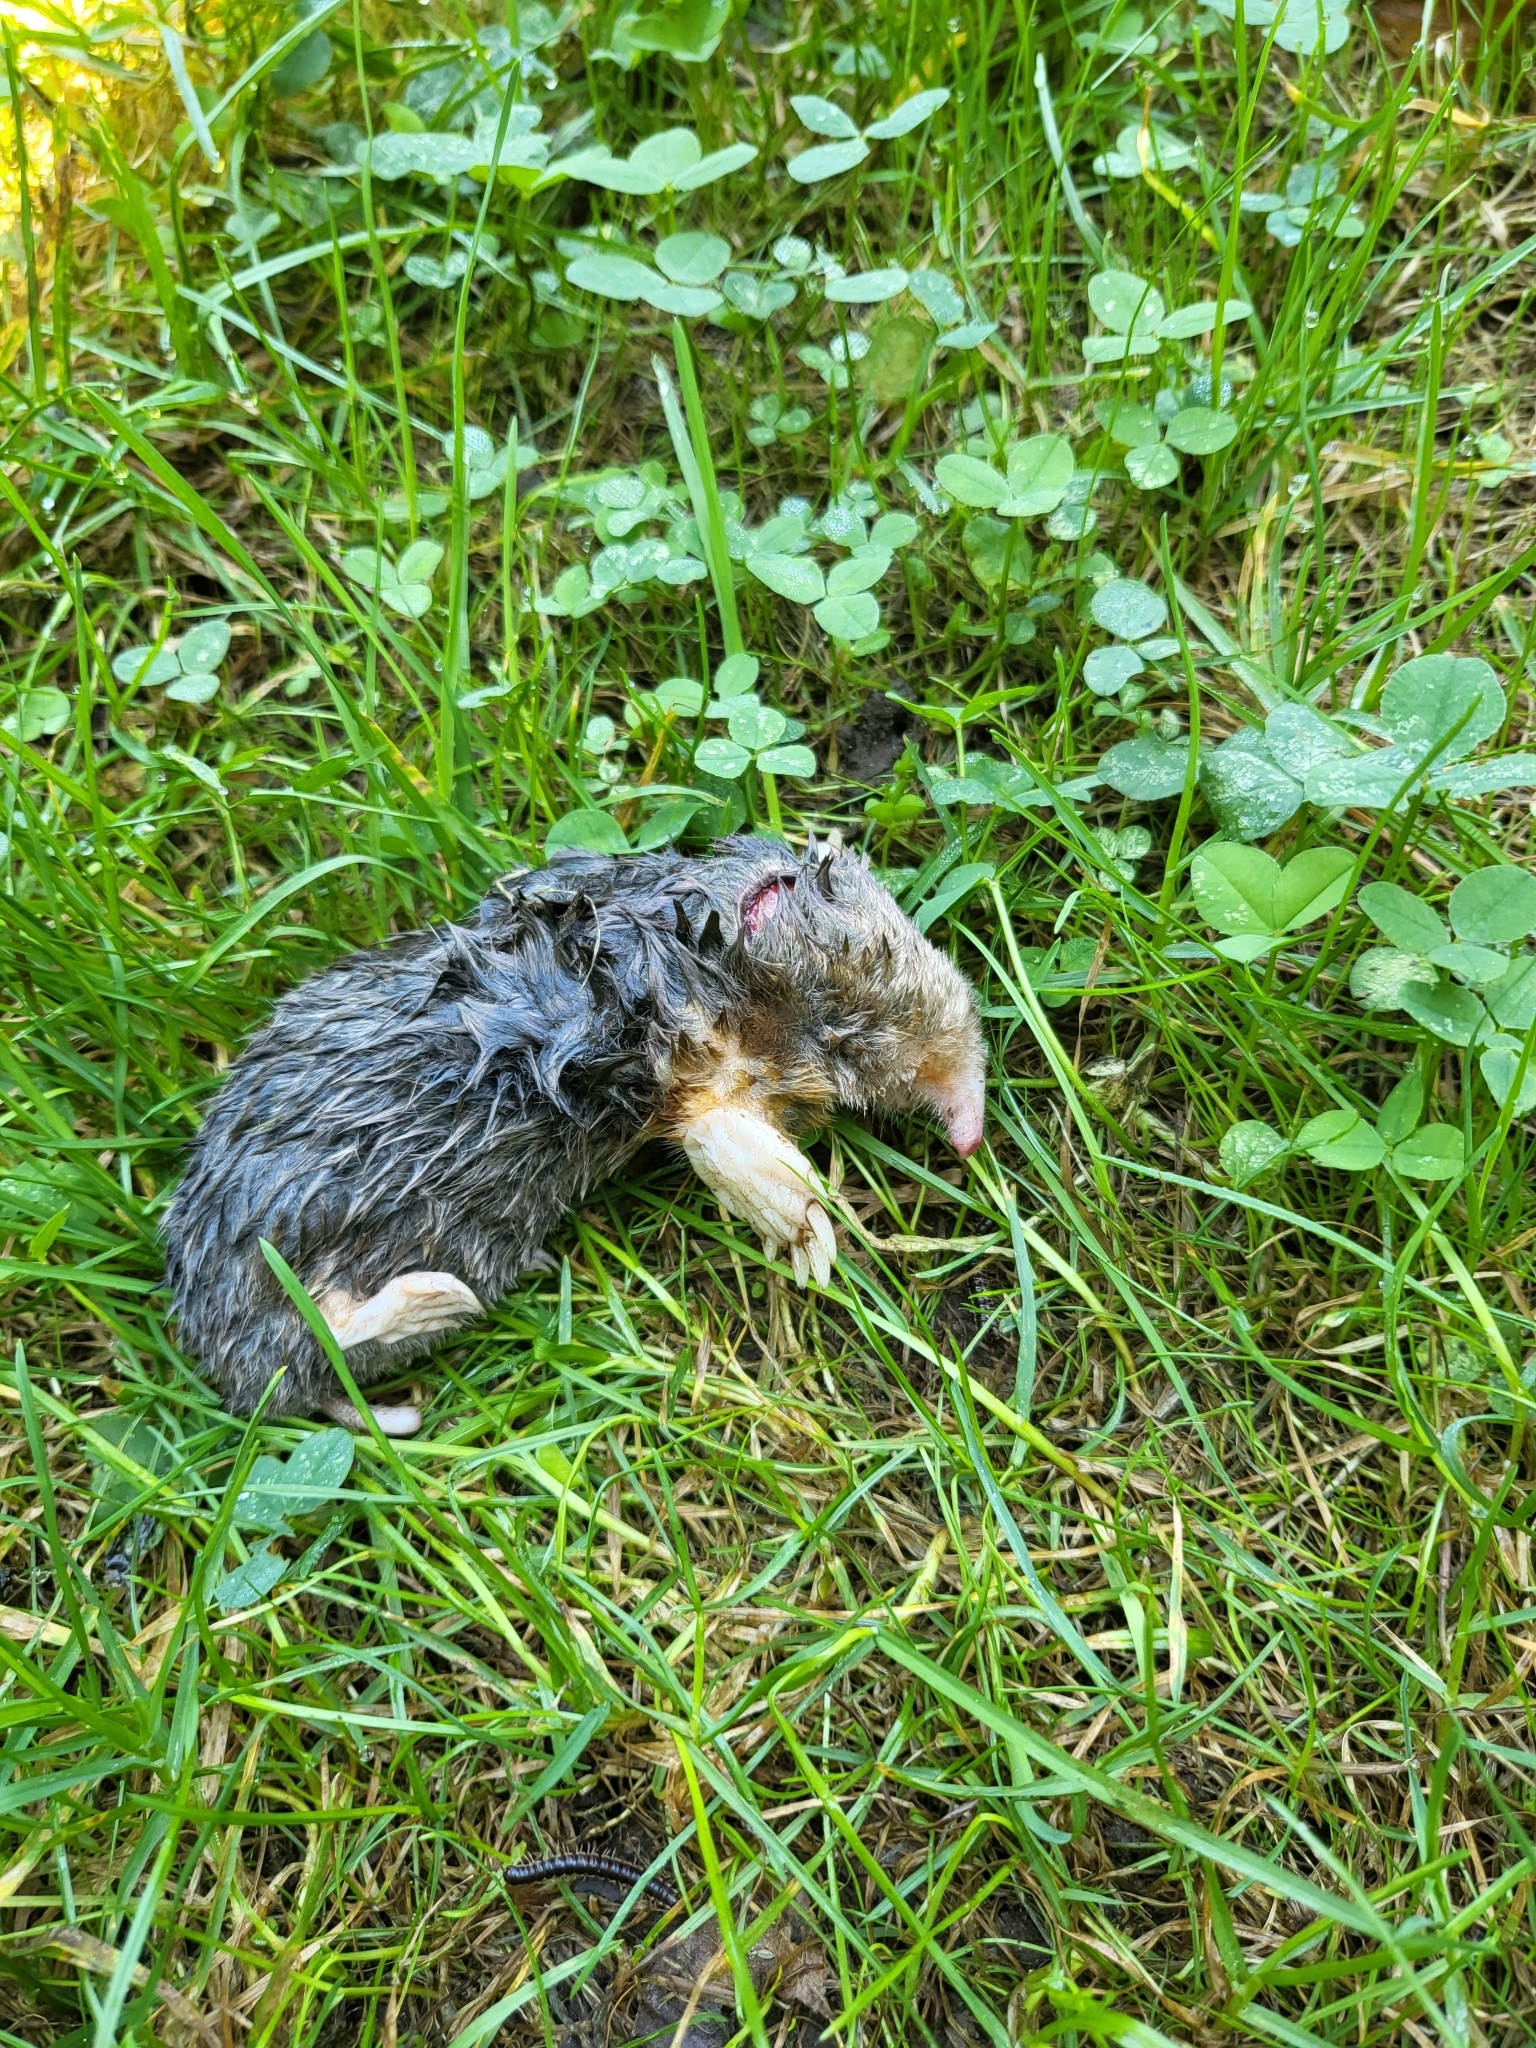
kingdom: Animalia
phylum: Chordata
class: Mammalia
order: Soricomorpha
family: Talpidae
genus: Scalopus
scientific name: Scalopus aquaticus
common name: Eastern mole
